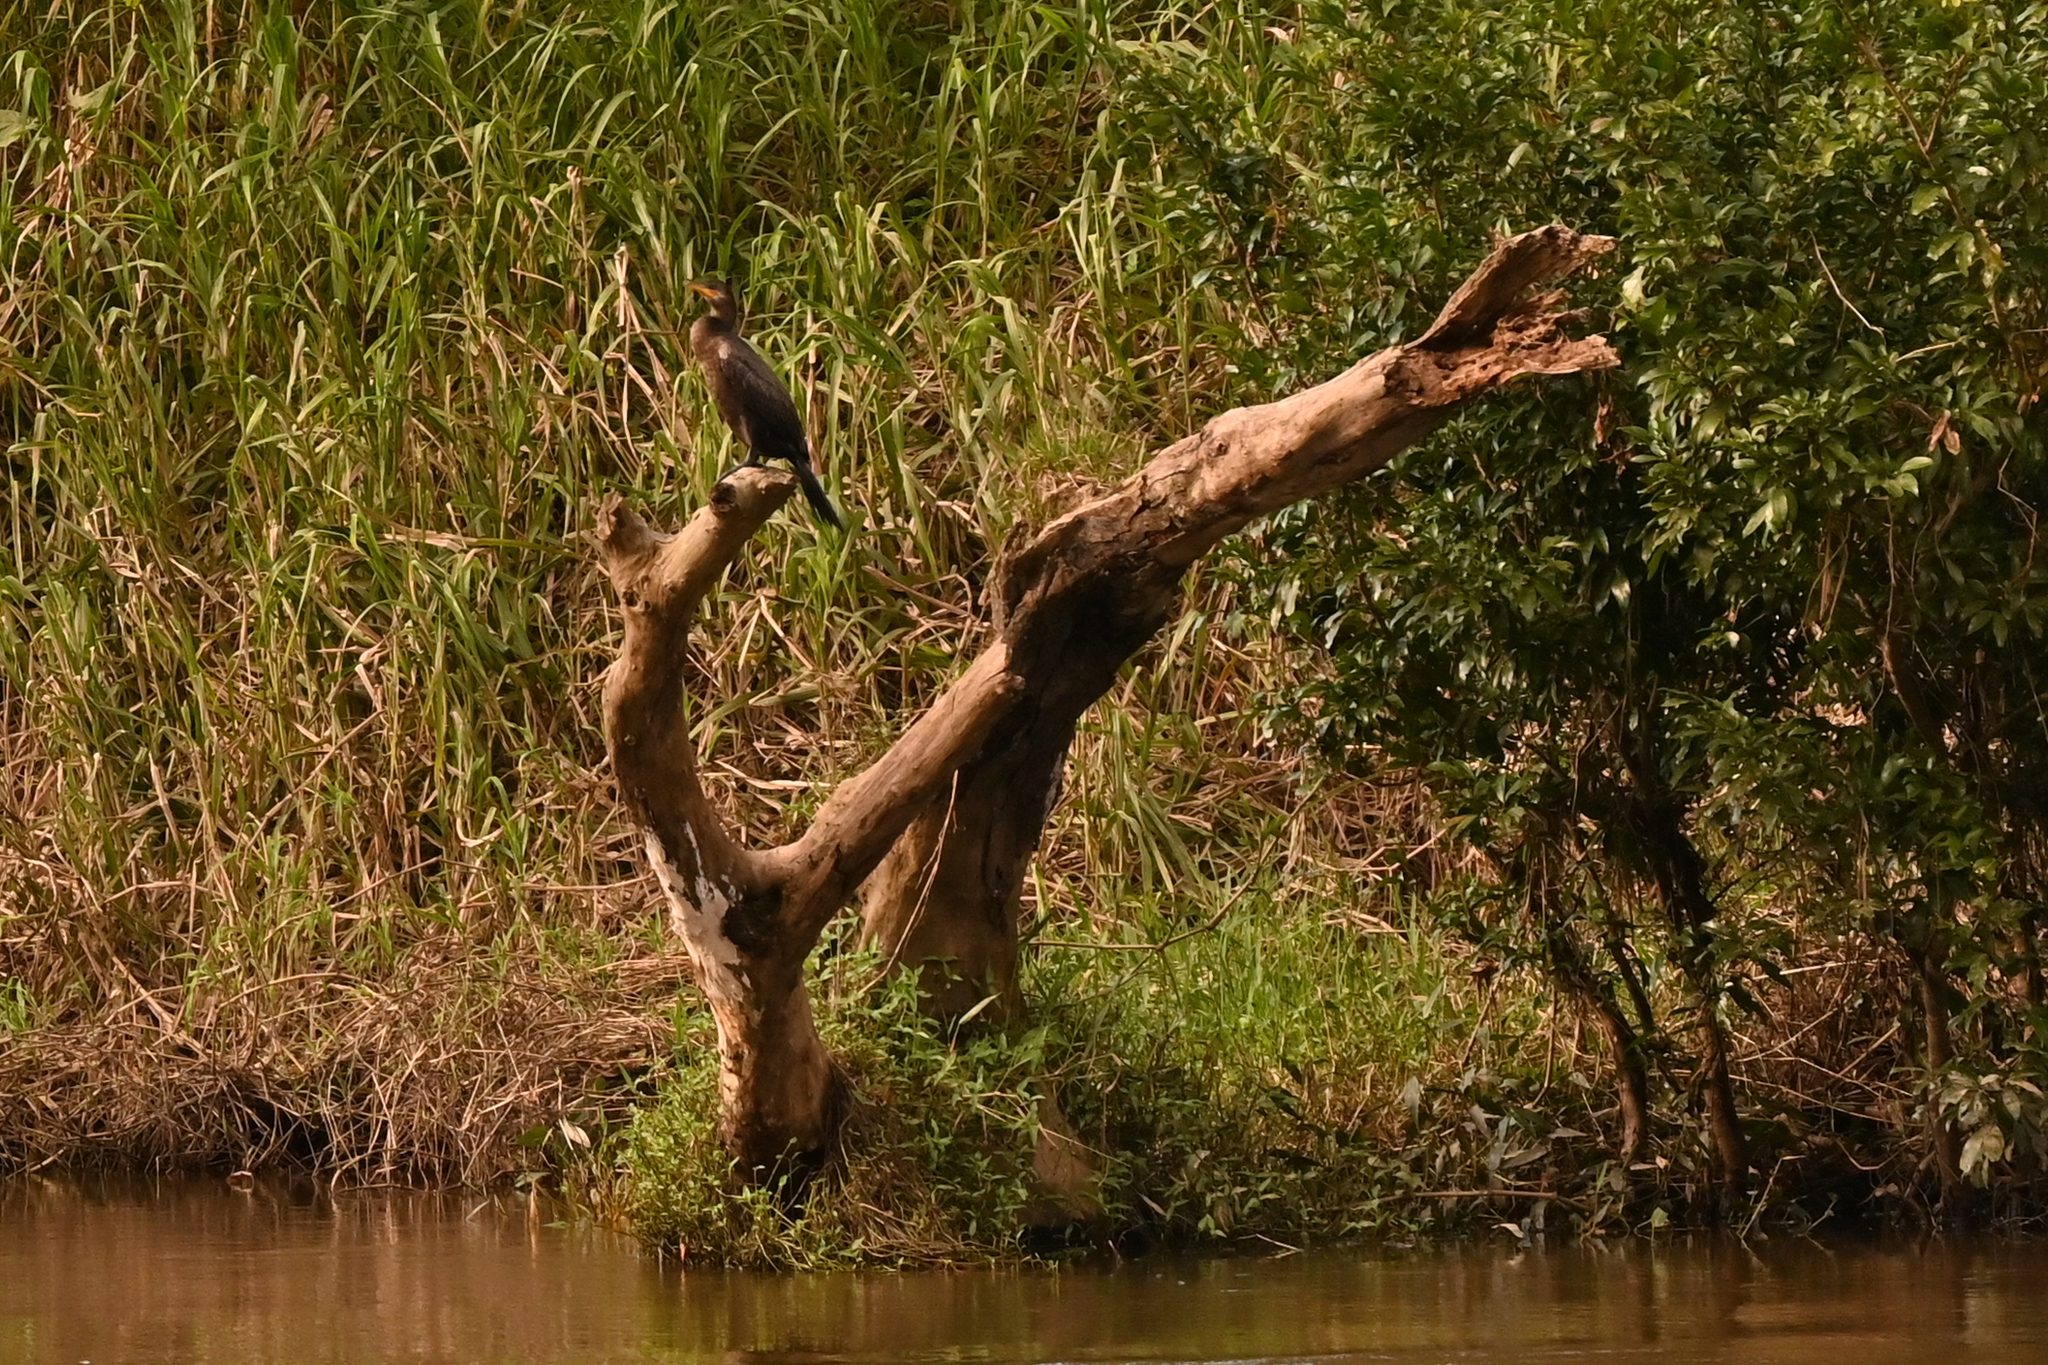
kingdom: Animalia
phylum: Chordata
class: Aves
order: Suliformes
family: Phalacrocoracidae
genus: Phalacrocorax
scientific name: Phalacrocorax brasilianus
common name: Neotropic cormorant
